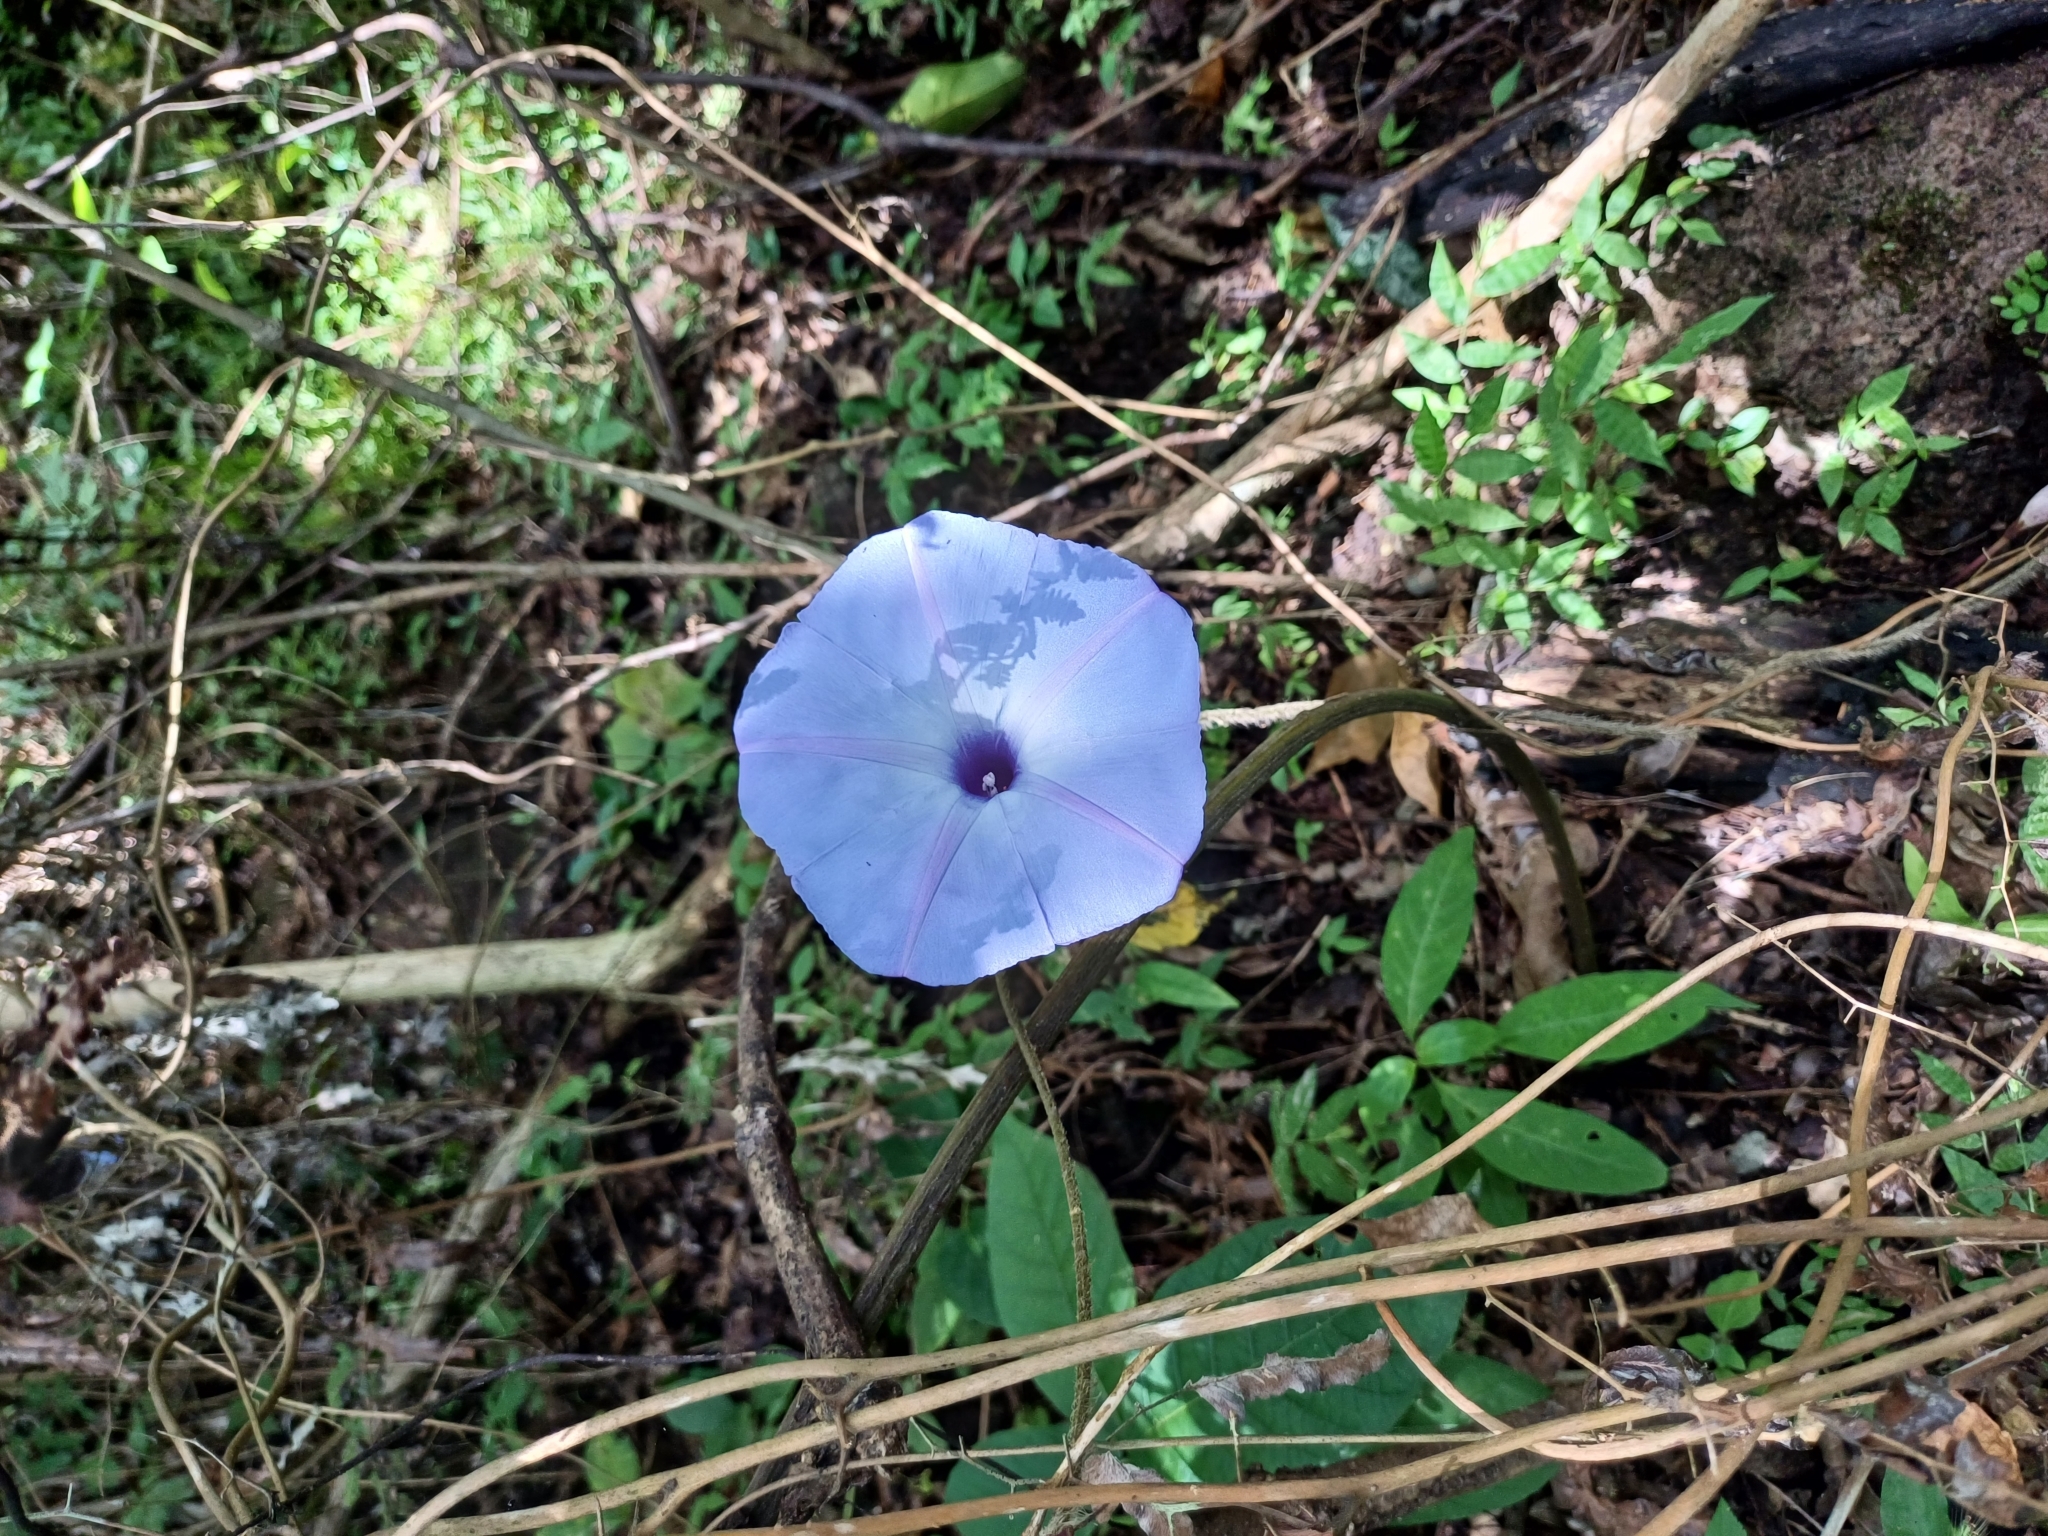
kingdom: Plantae
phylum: Tracheophyta
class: Magnoliopsida
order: Solanales
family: Convolvulaceae
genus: Ipomoea
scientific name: Ipomoea regnellii
